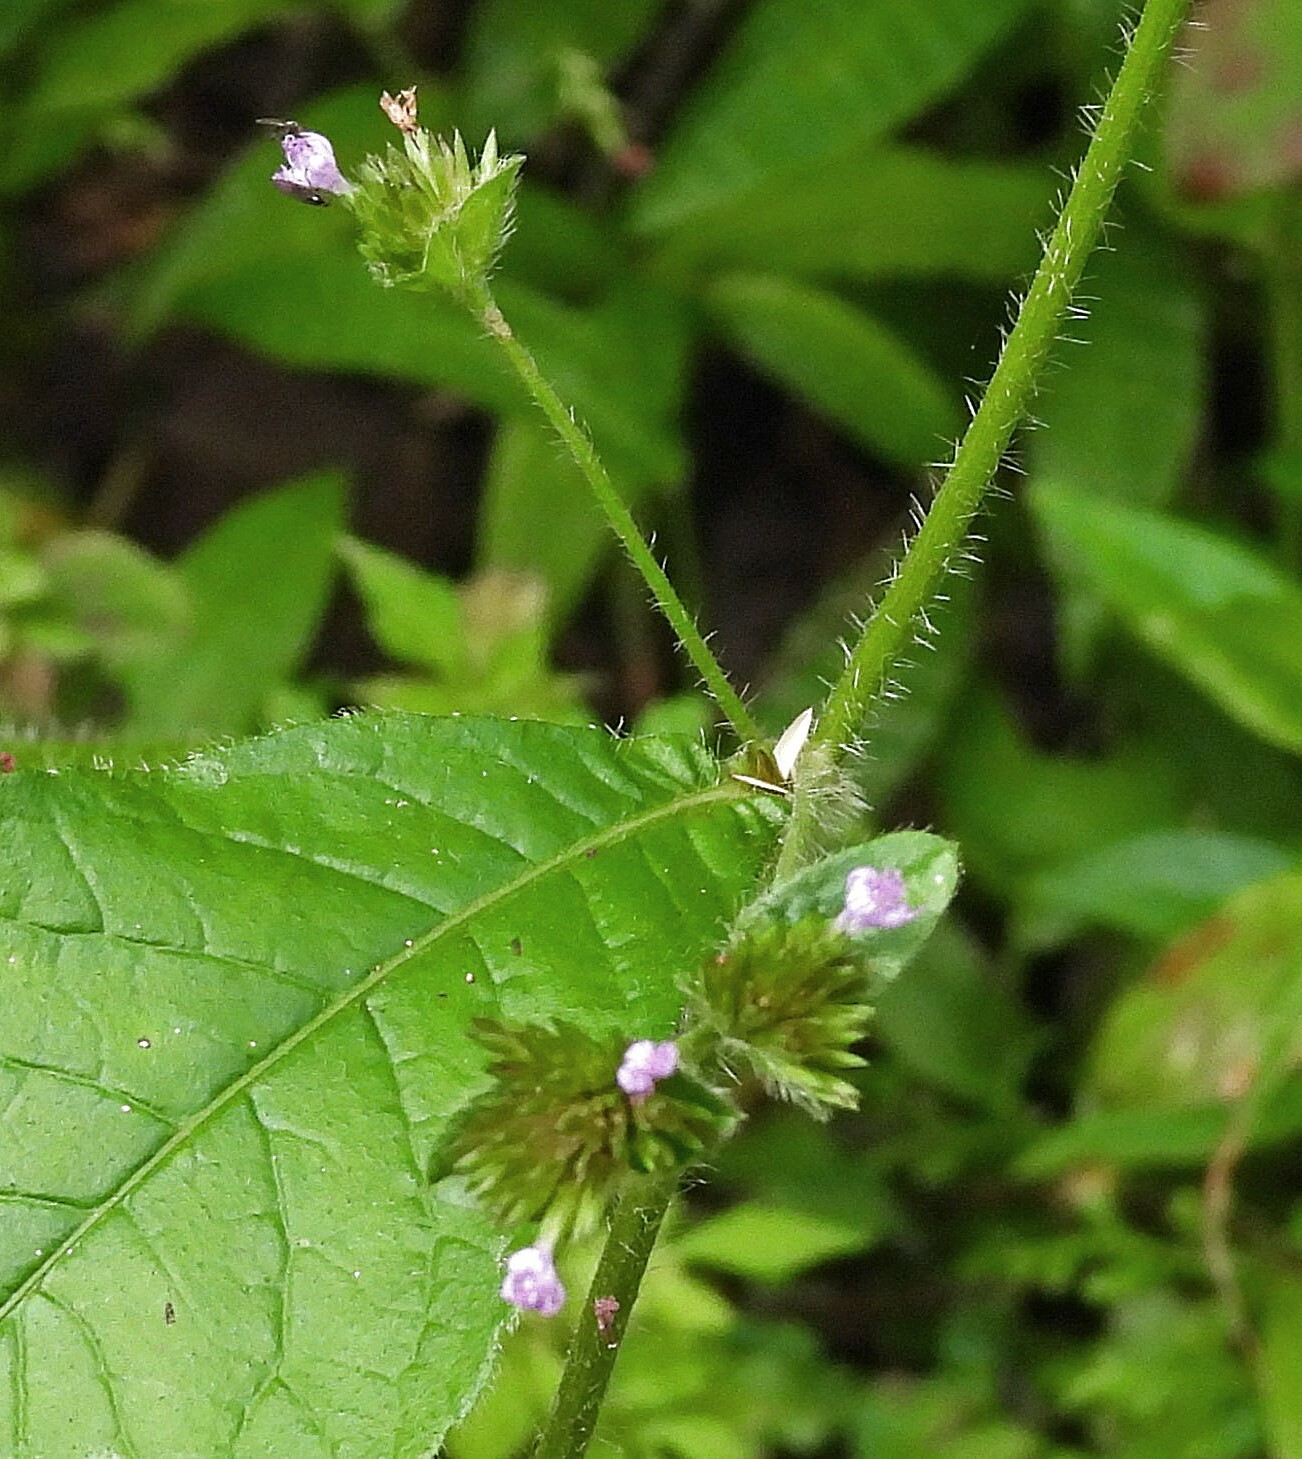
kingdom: Plantae
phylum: Tracheophyta
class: Magnoliopsida
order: Asterales
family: Asteraceae
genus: Elephantopus
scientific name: Elephantopus mollis
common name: Soft elephantsfoot
